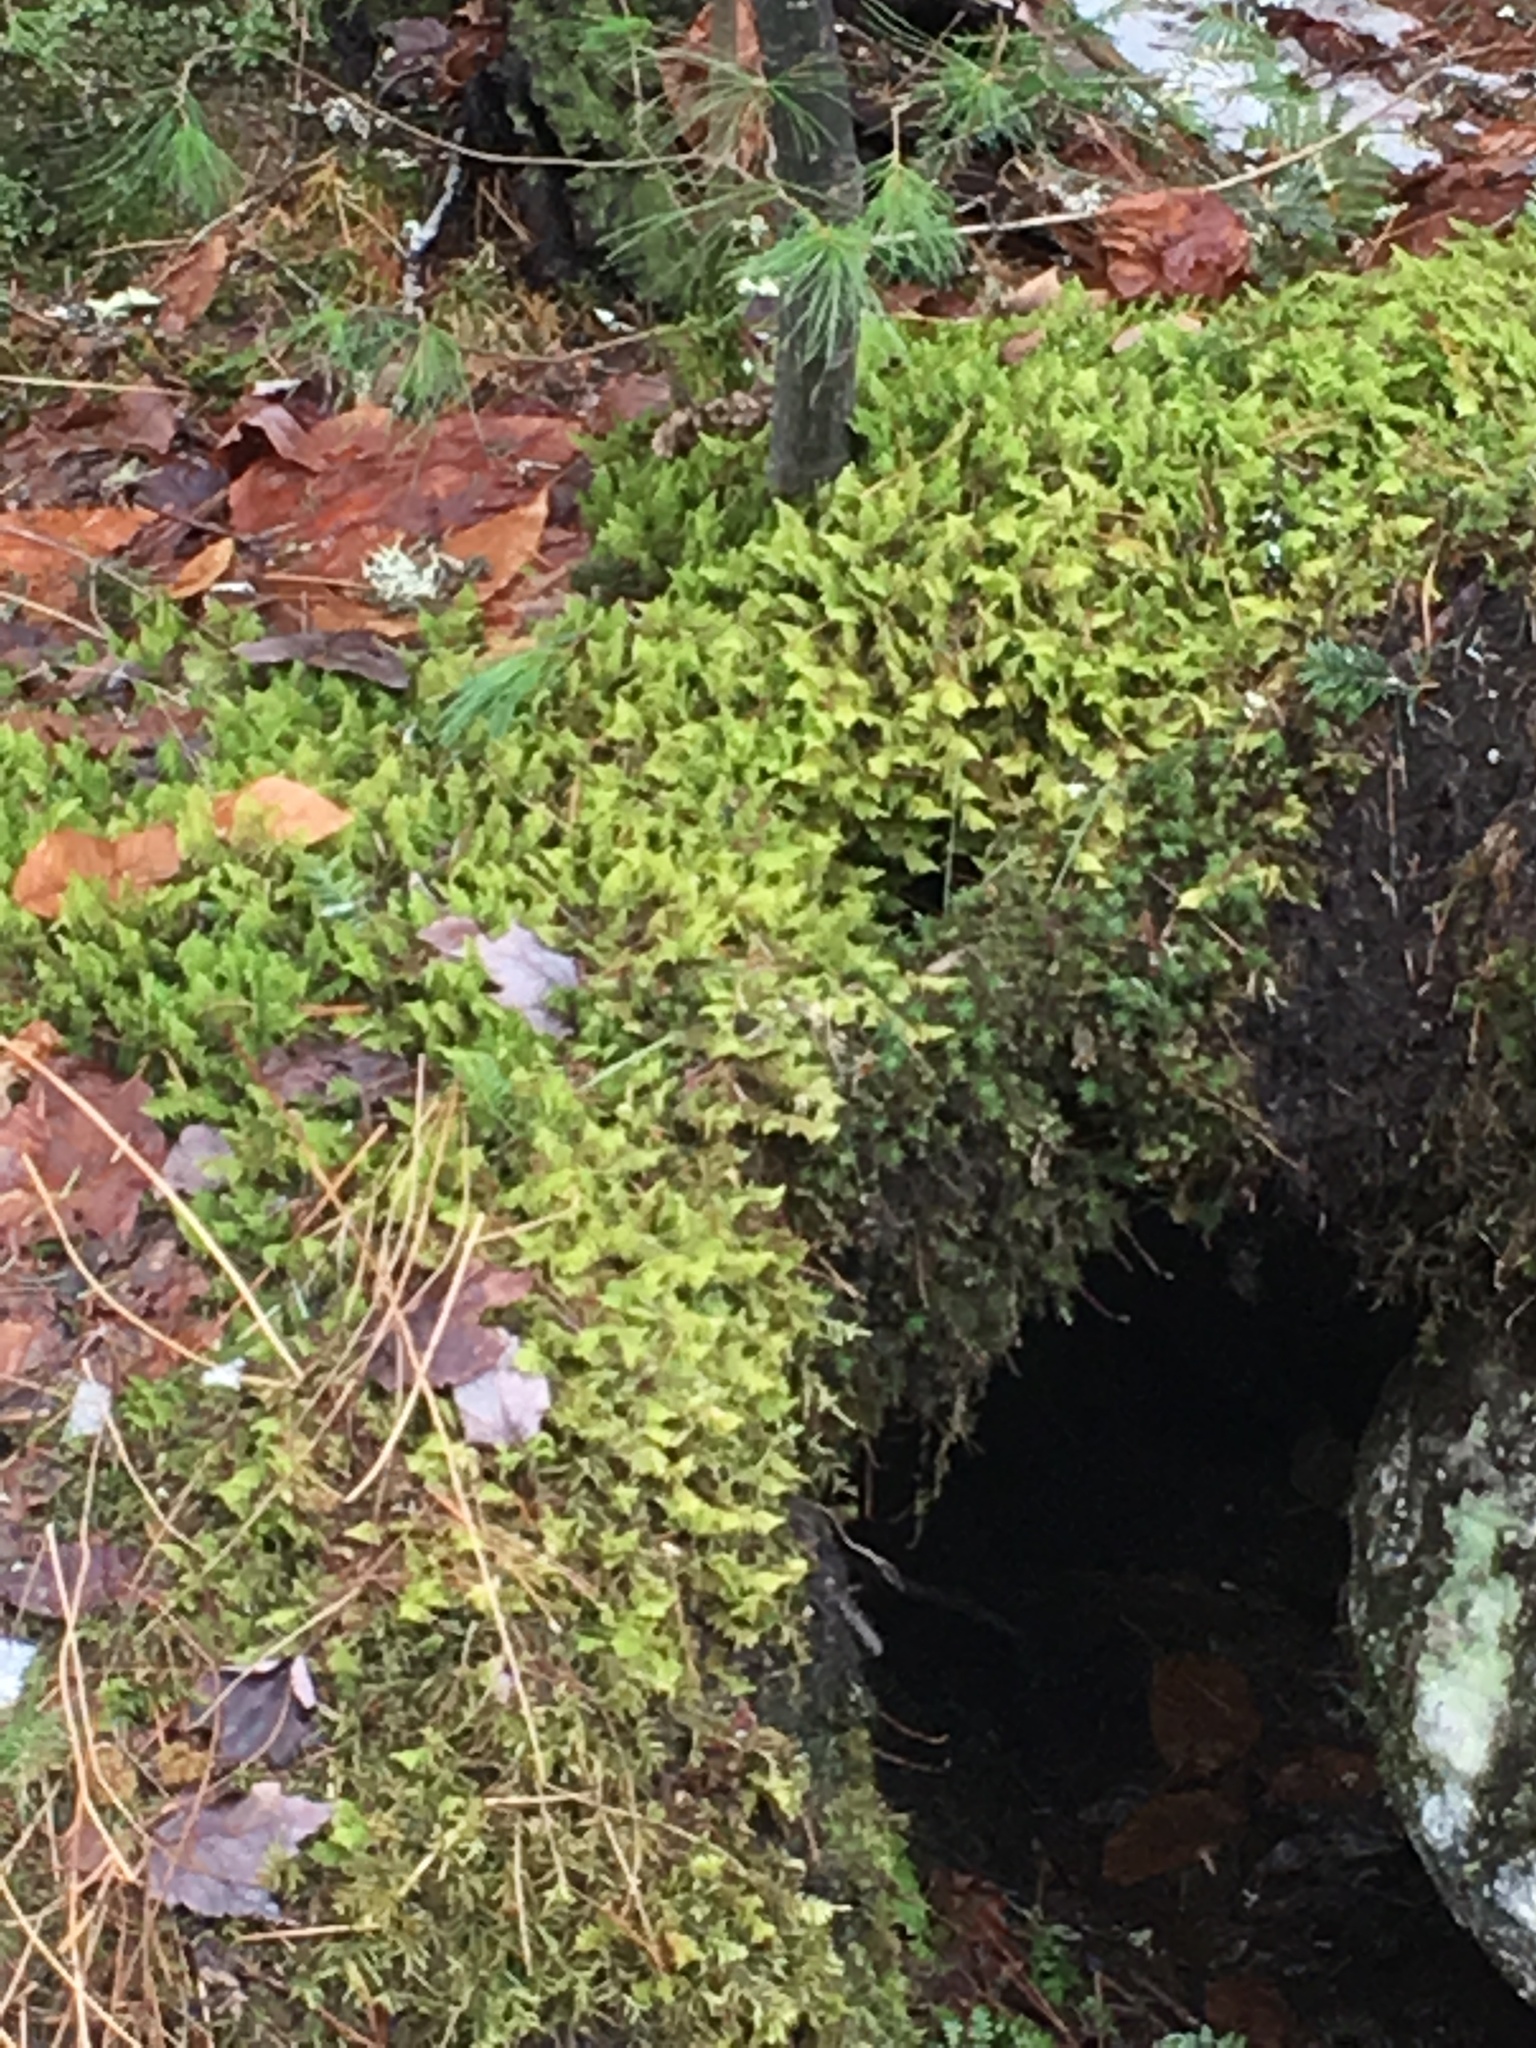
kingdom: Plantae
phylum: Bryophyta
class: Bryopsida
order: Hypnales
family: Pylaisiaceae
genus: Ptilium
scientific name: Ptilium crista-castrensis
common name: Knight's plume moss
